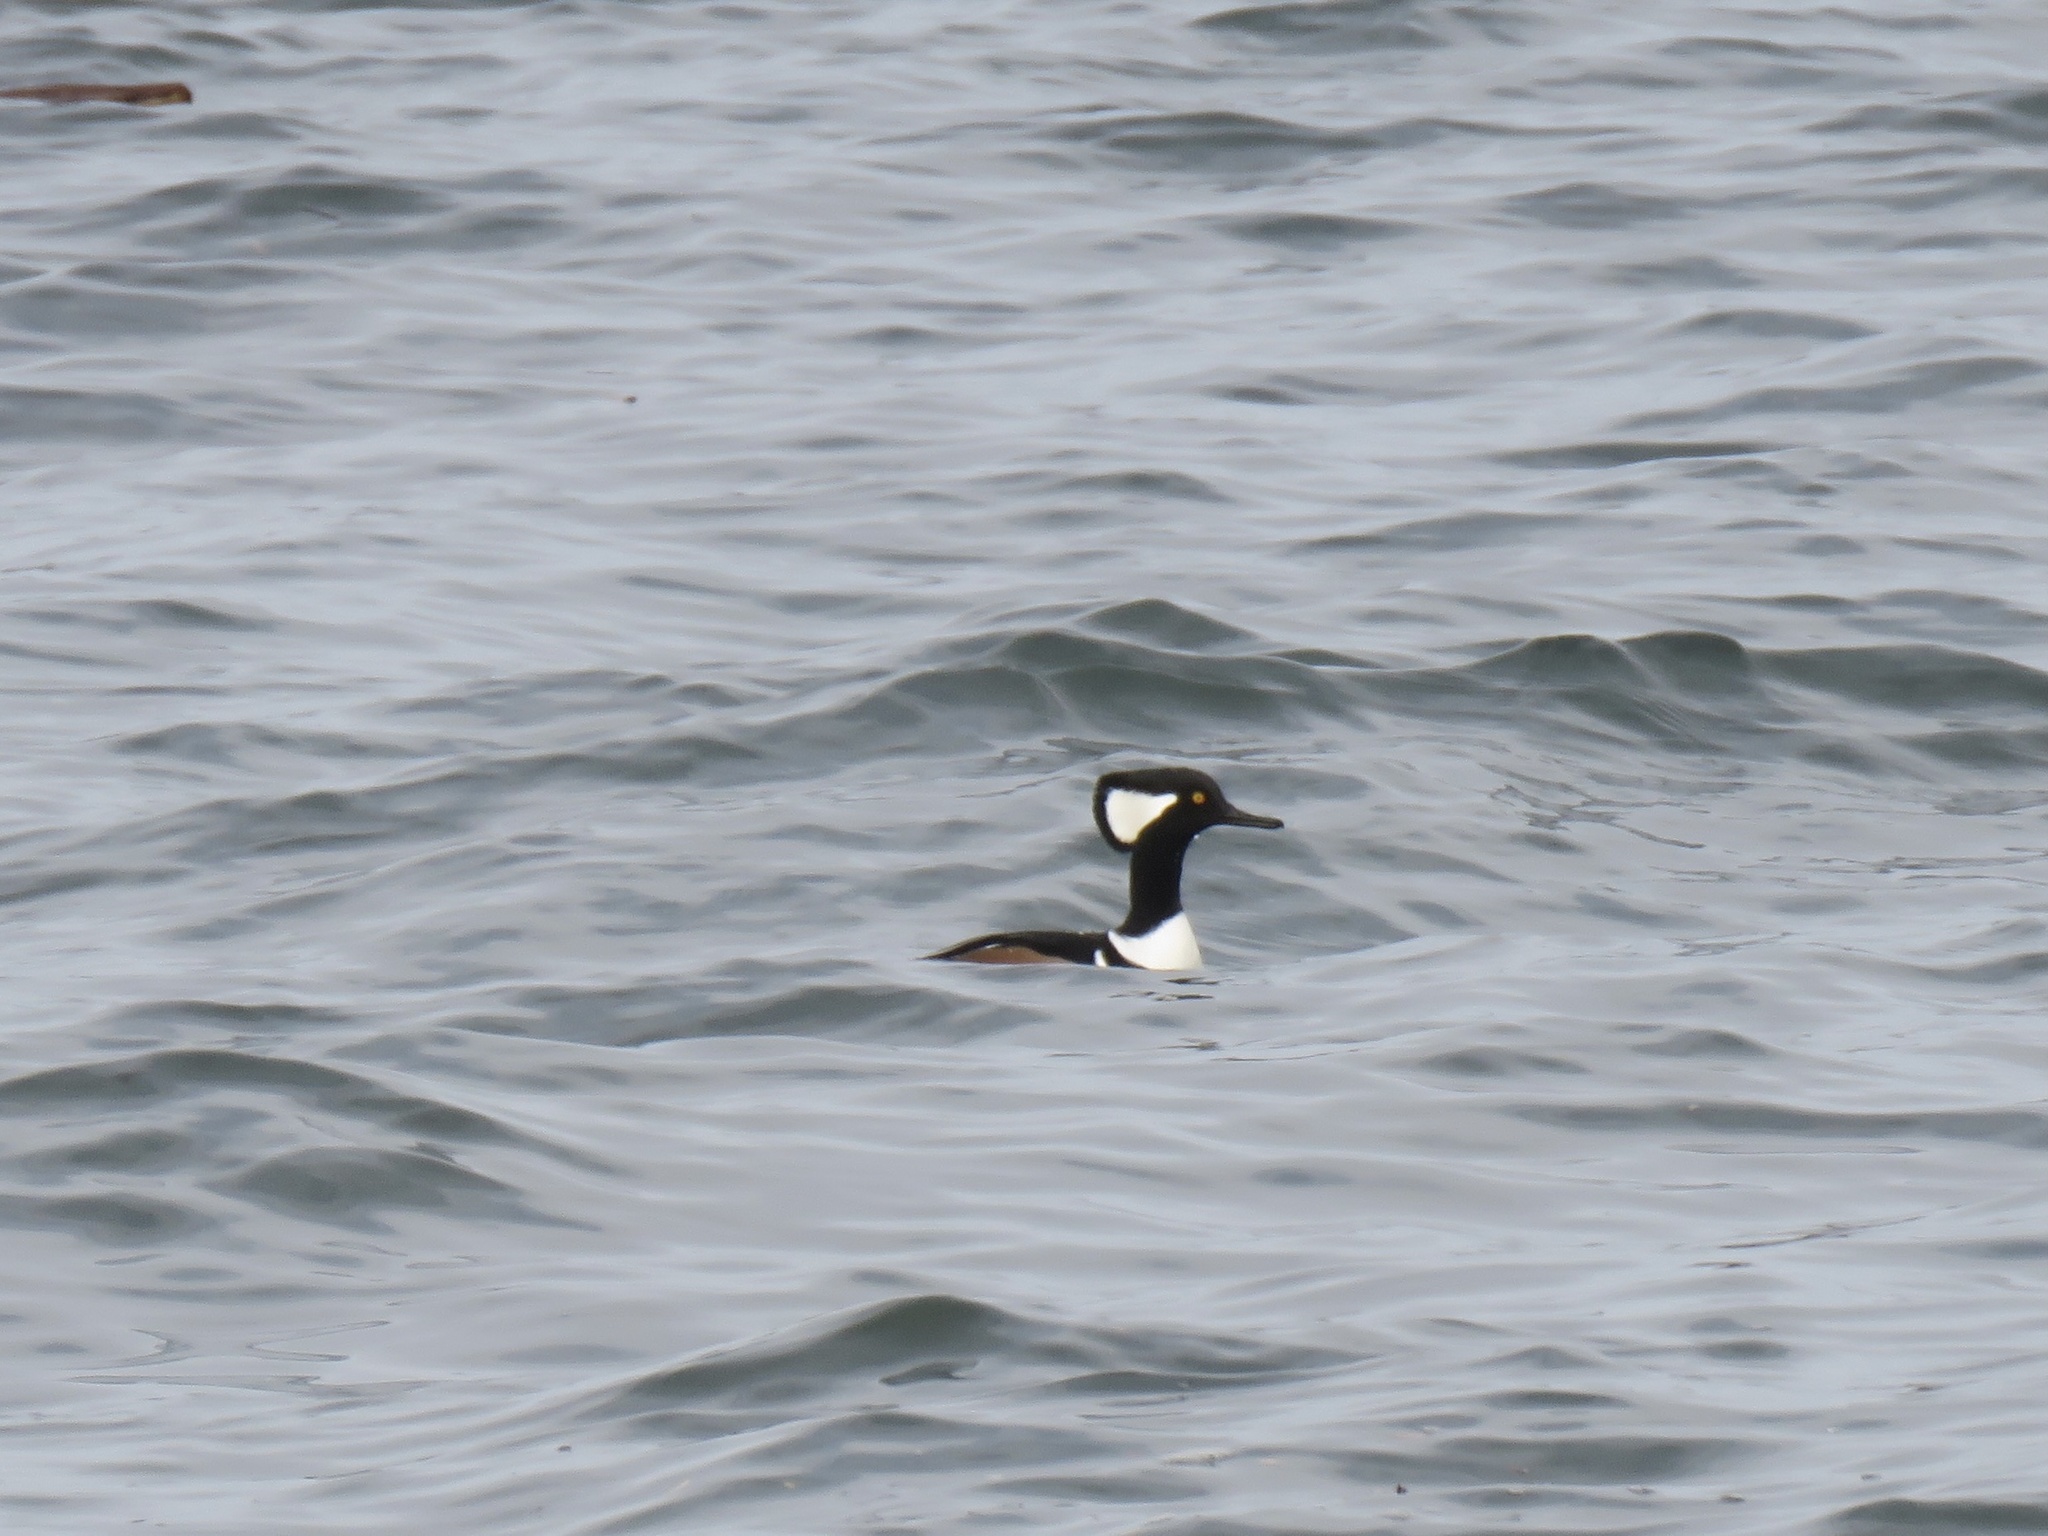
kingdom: Animalia
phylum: Chordata
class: Aves
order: Anseriformes
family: Anatidae
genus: Lophodytes
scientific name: Lophodytes cucullatus
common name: Hooded merganser
